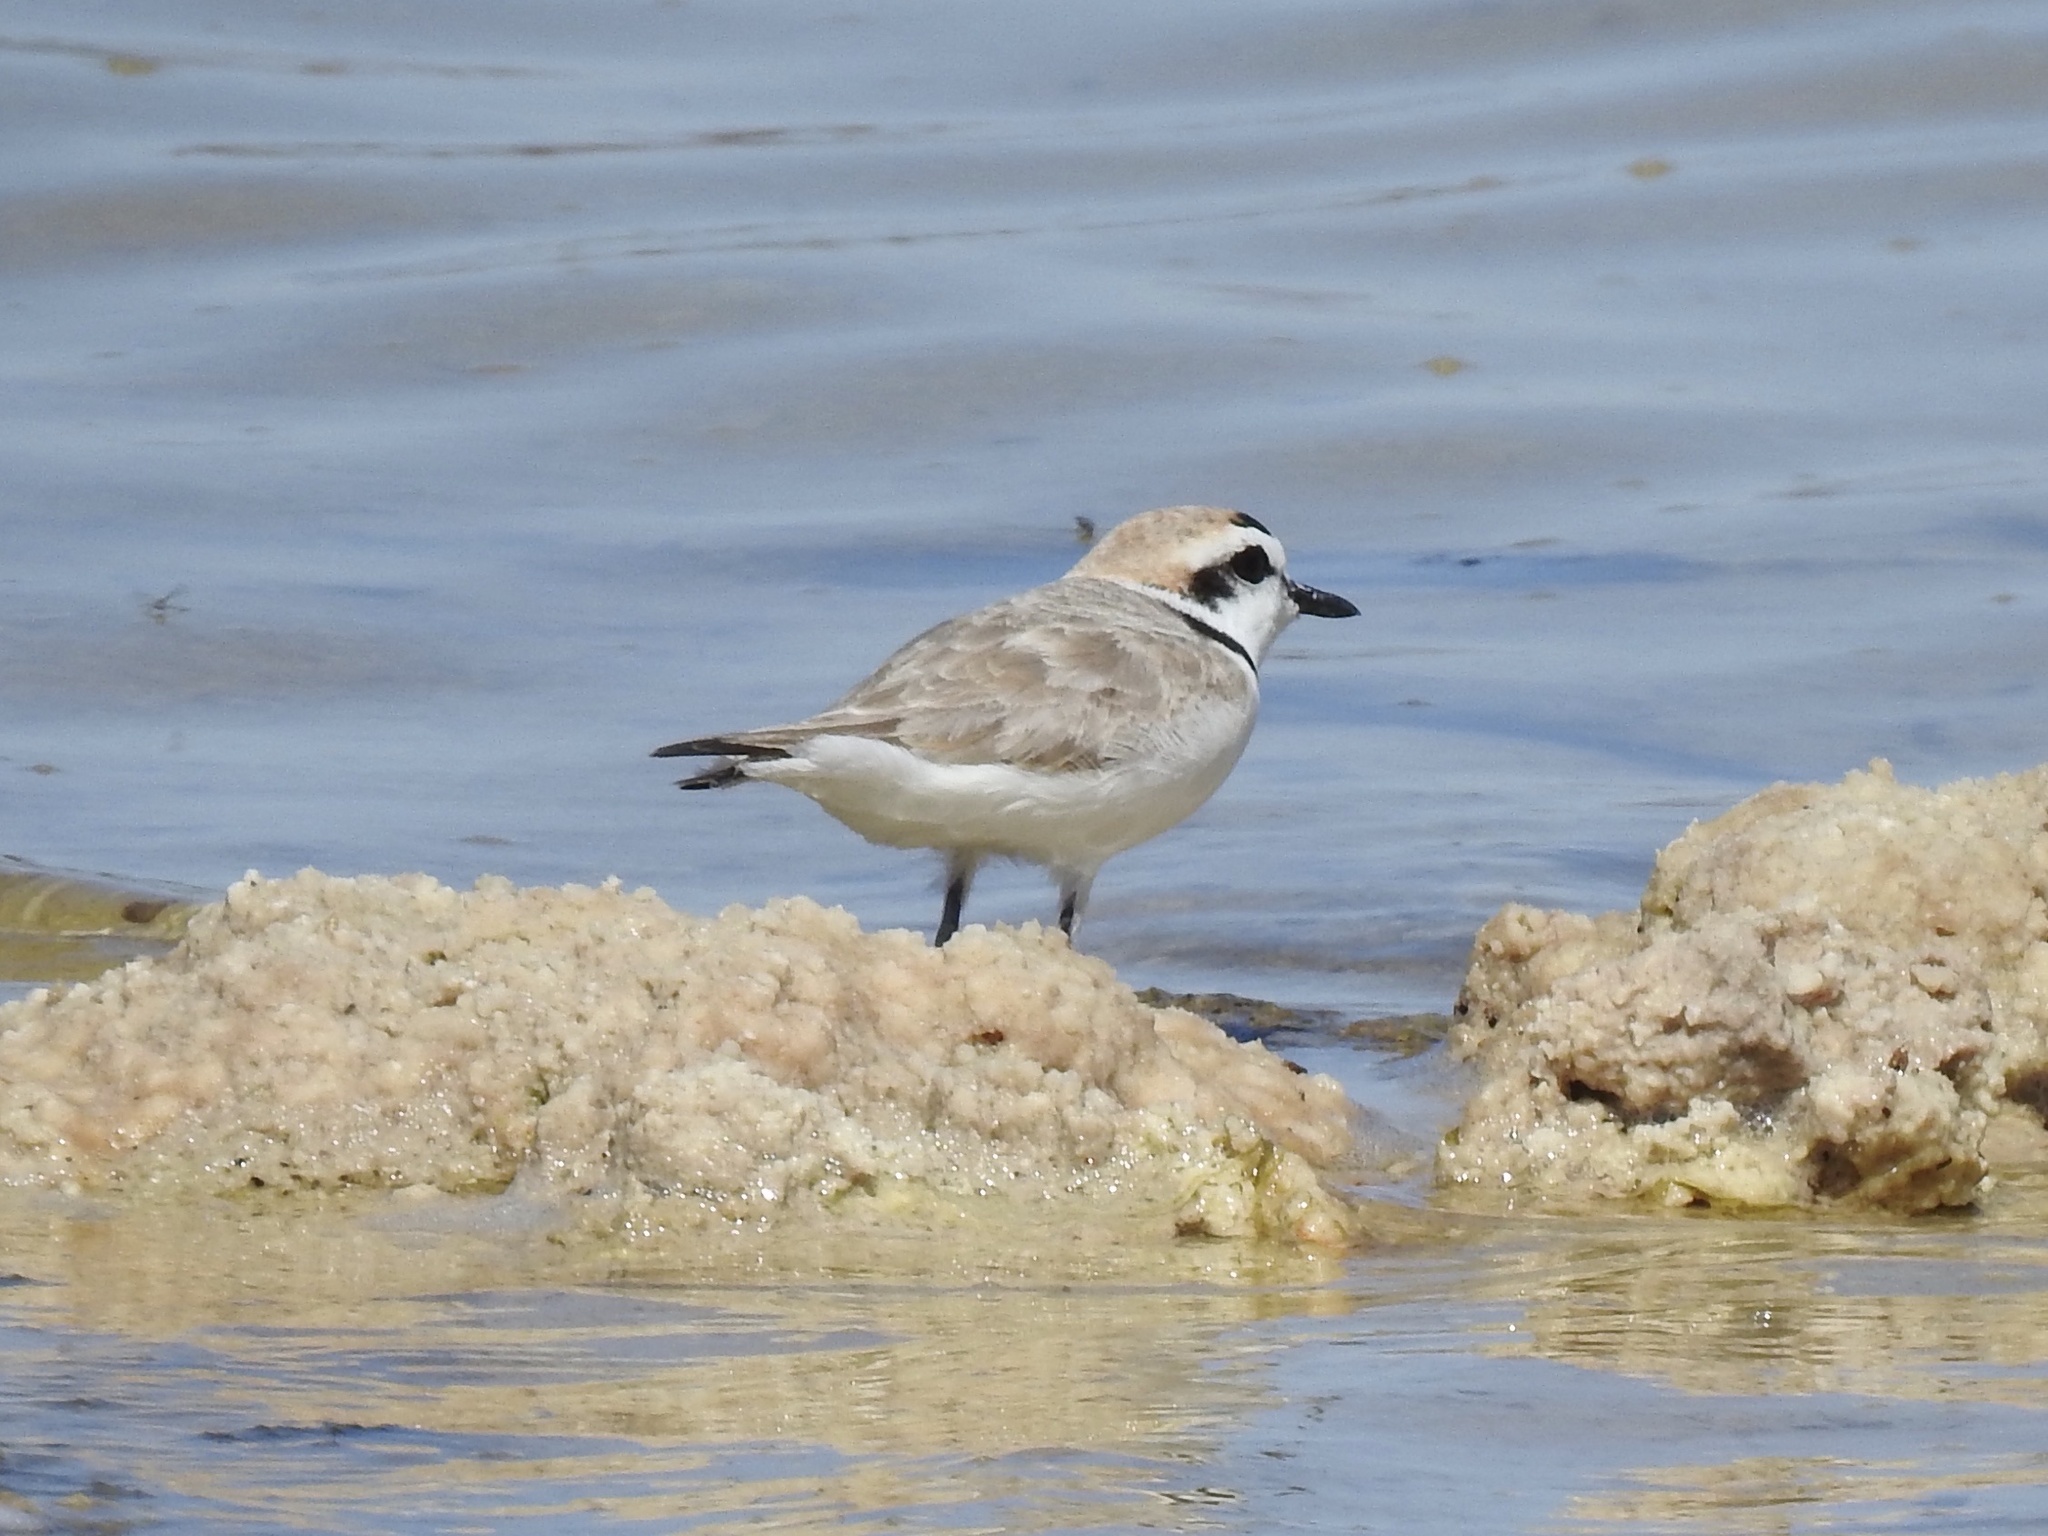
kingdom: Animalia
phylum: Chordata
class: Aves
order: Charadriiformes
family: Charadriidae
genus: Anarhynchus
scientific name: Anarhynchus
